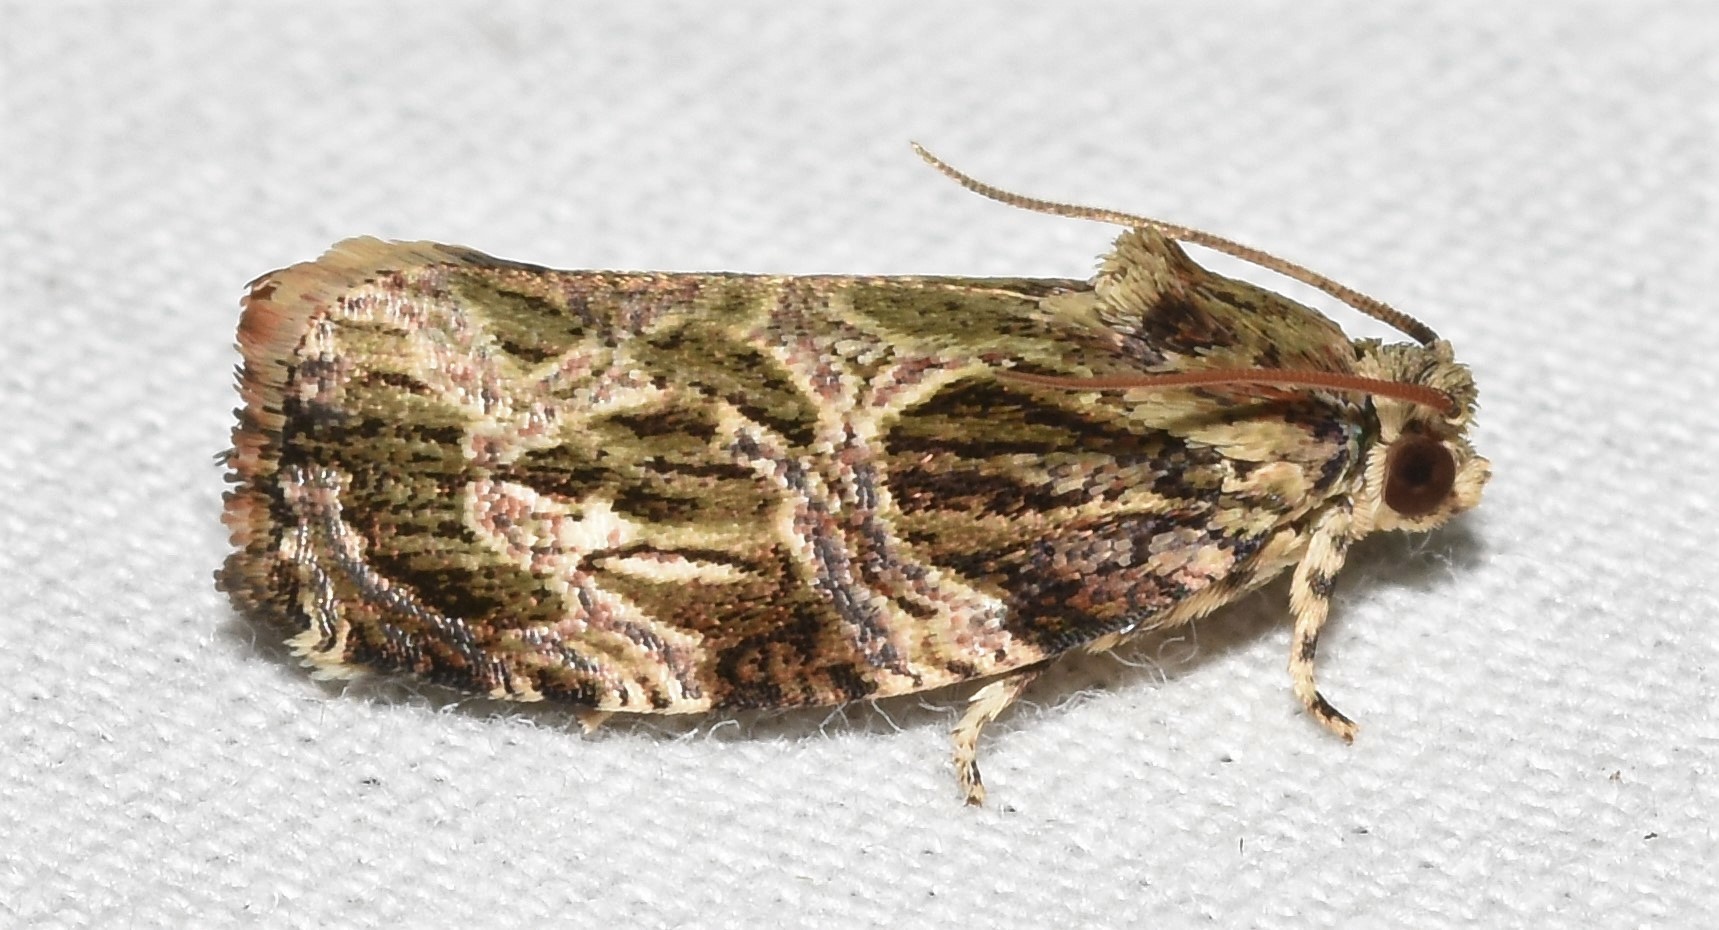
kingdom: Animalia
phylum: Arthropoda
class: Insecta
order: Lepidoptera
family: Tortricidae
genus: Phaecasiophora
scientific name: Phaecasiophora confixana
